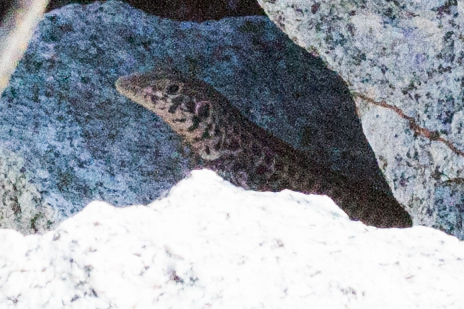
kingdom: Animalia
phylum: Chordata
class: Squamata
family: Teiidae
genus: Aspidoscelis
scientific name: Aspidoscelis tigris
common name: Tiger whiptail
